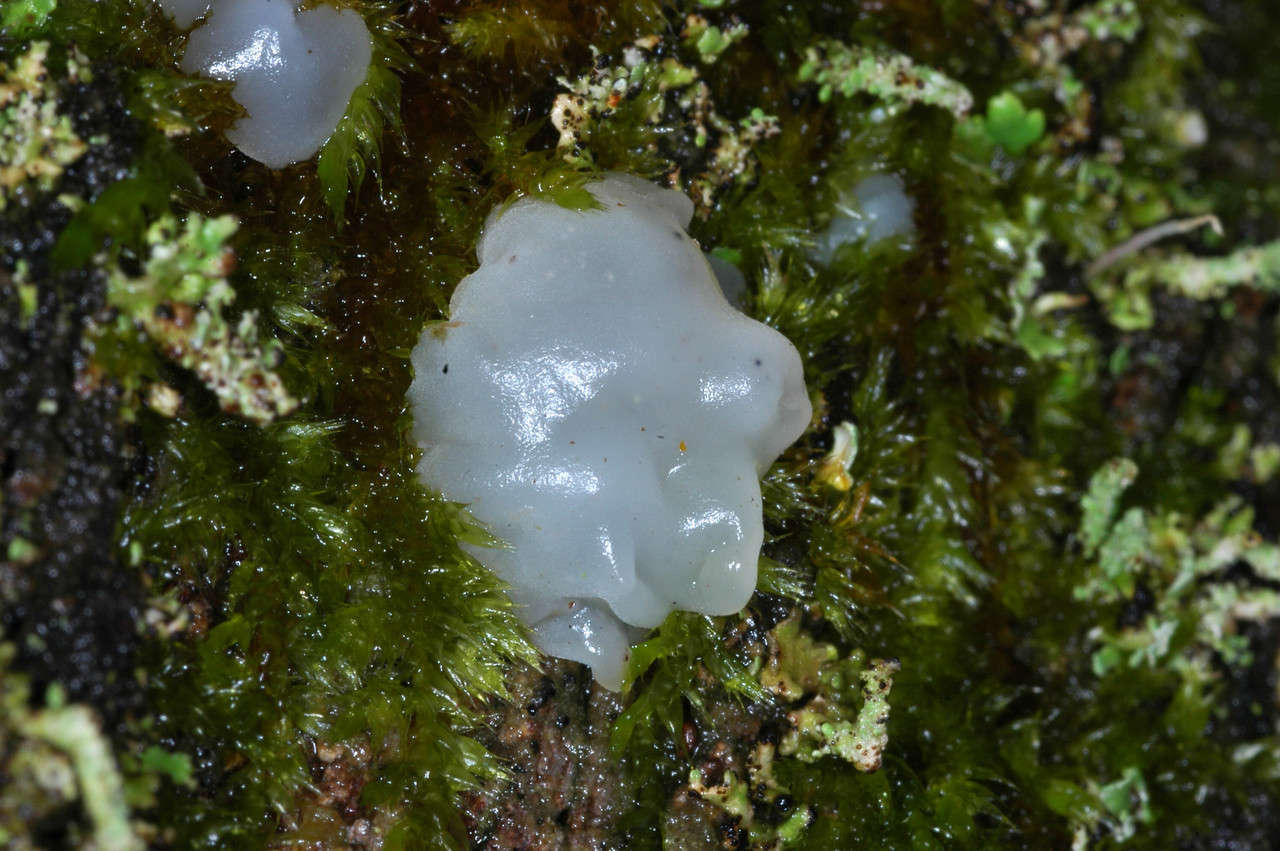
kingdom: Fungi
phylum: Basidiomycota
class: Tremellomycetes
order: Tremellales
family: Tremellaceae
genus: Tremella
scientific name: Tremella fuciformis
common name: Snow fungus
